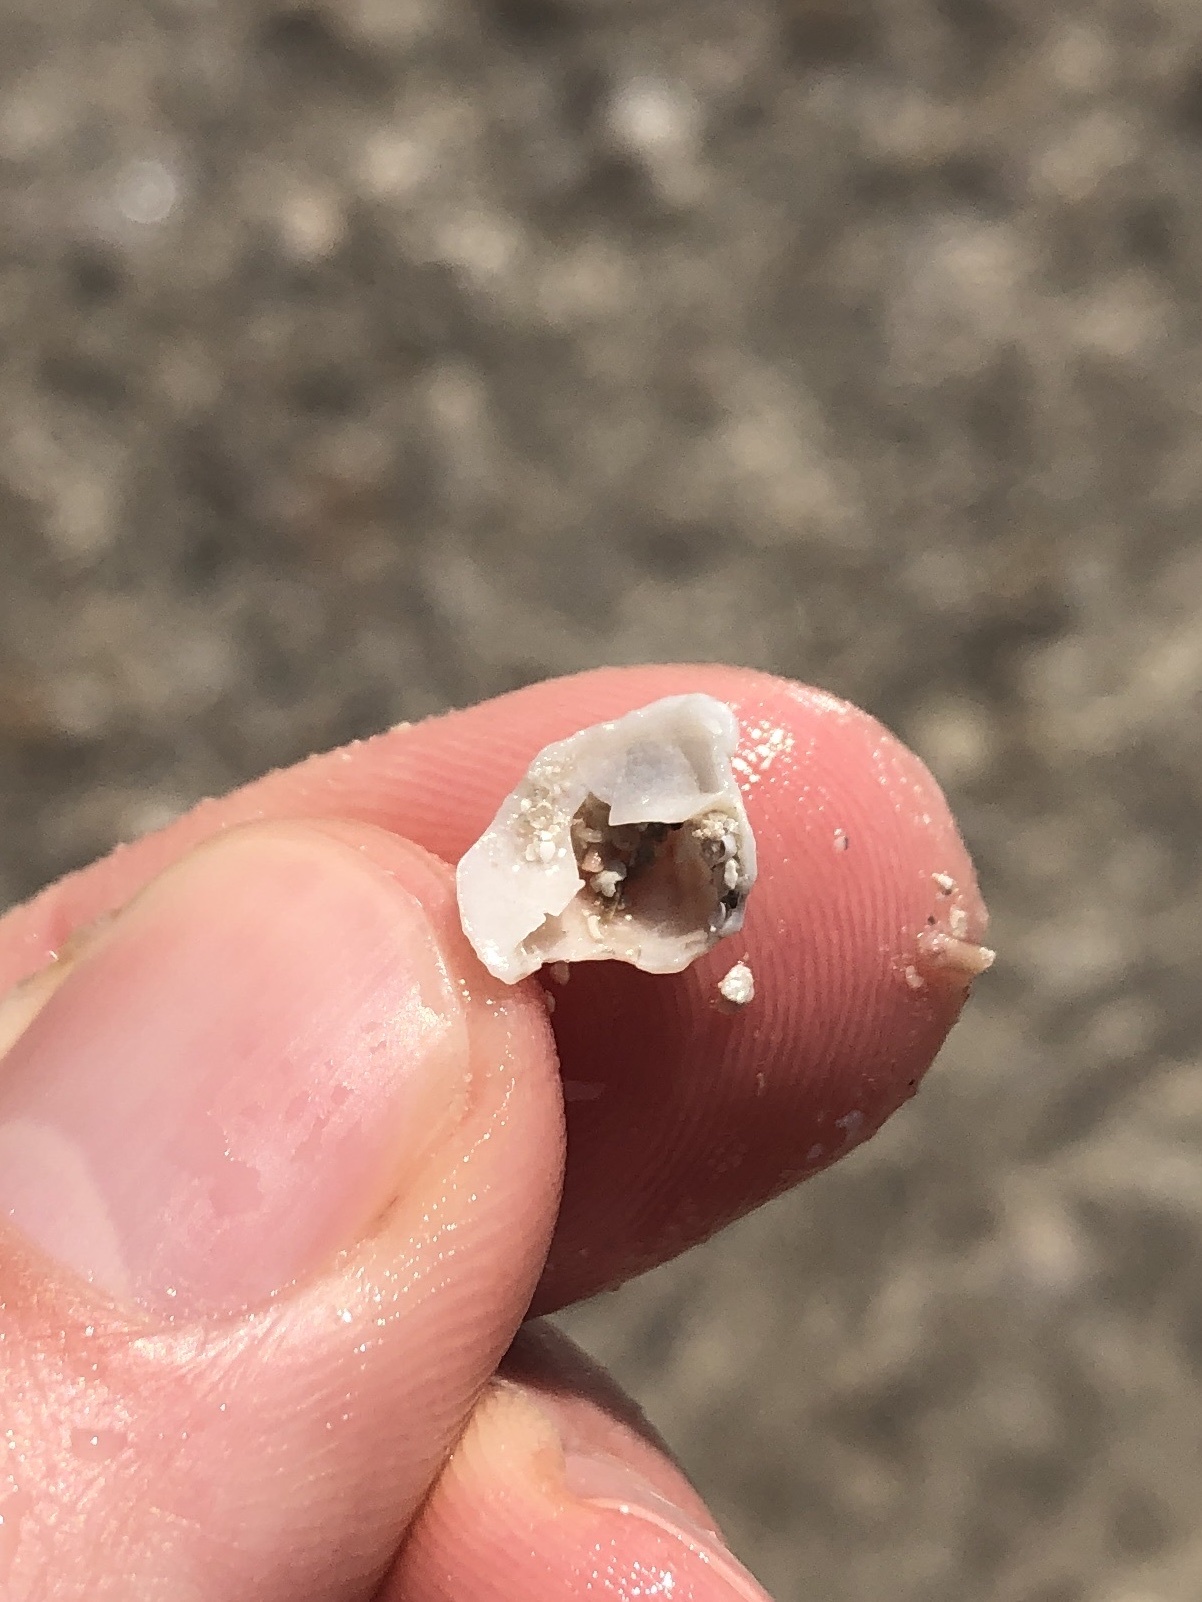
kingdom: Animalia
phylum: Mollusca
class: Gastropoda
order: Littorinimorpha
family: Calyptraeidae
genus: Bostrycapulus
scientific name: Bostrycapulus aculeatus
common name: Spiny slippersnail
